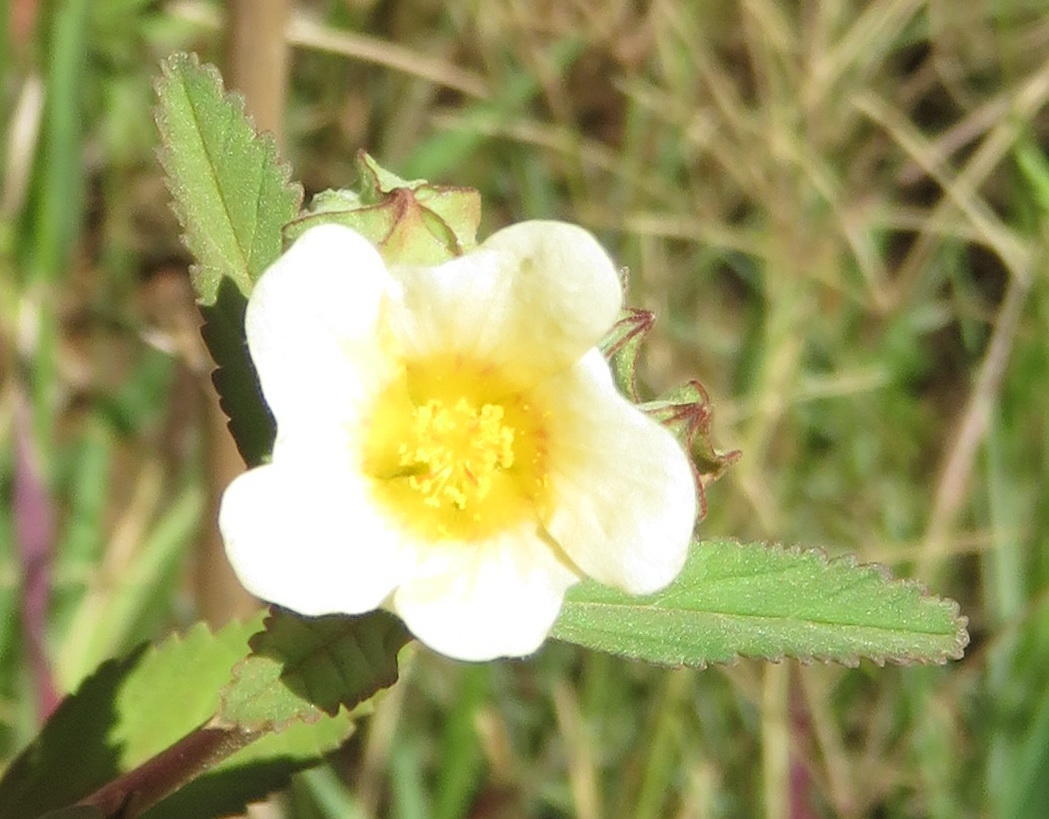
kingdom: Plantae
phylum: Tracheophyta
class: Magnoliopsida
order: Malvales
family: Malvaceae
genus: Sida
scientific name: Sida rhombifolia
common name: Queensland-hemp
